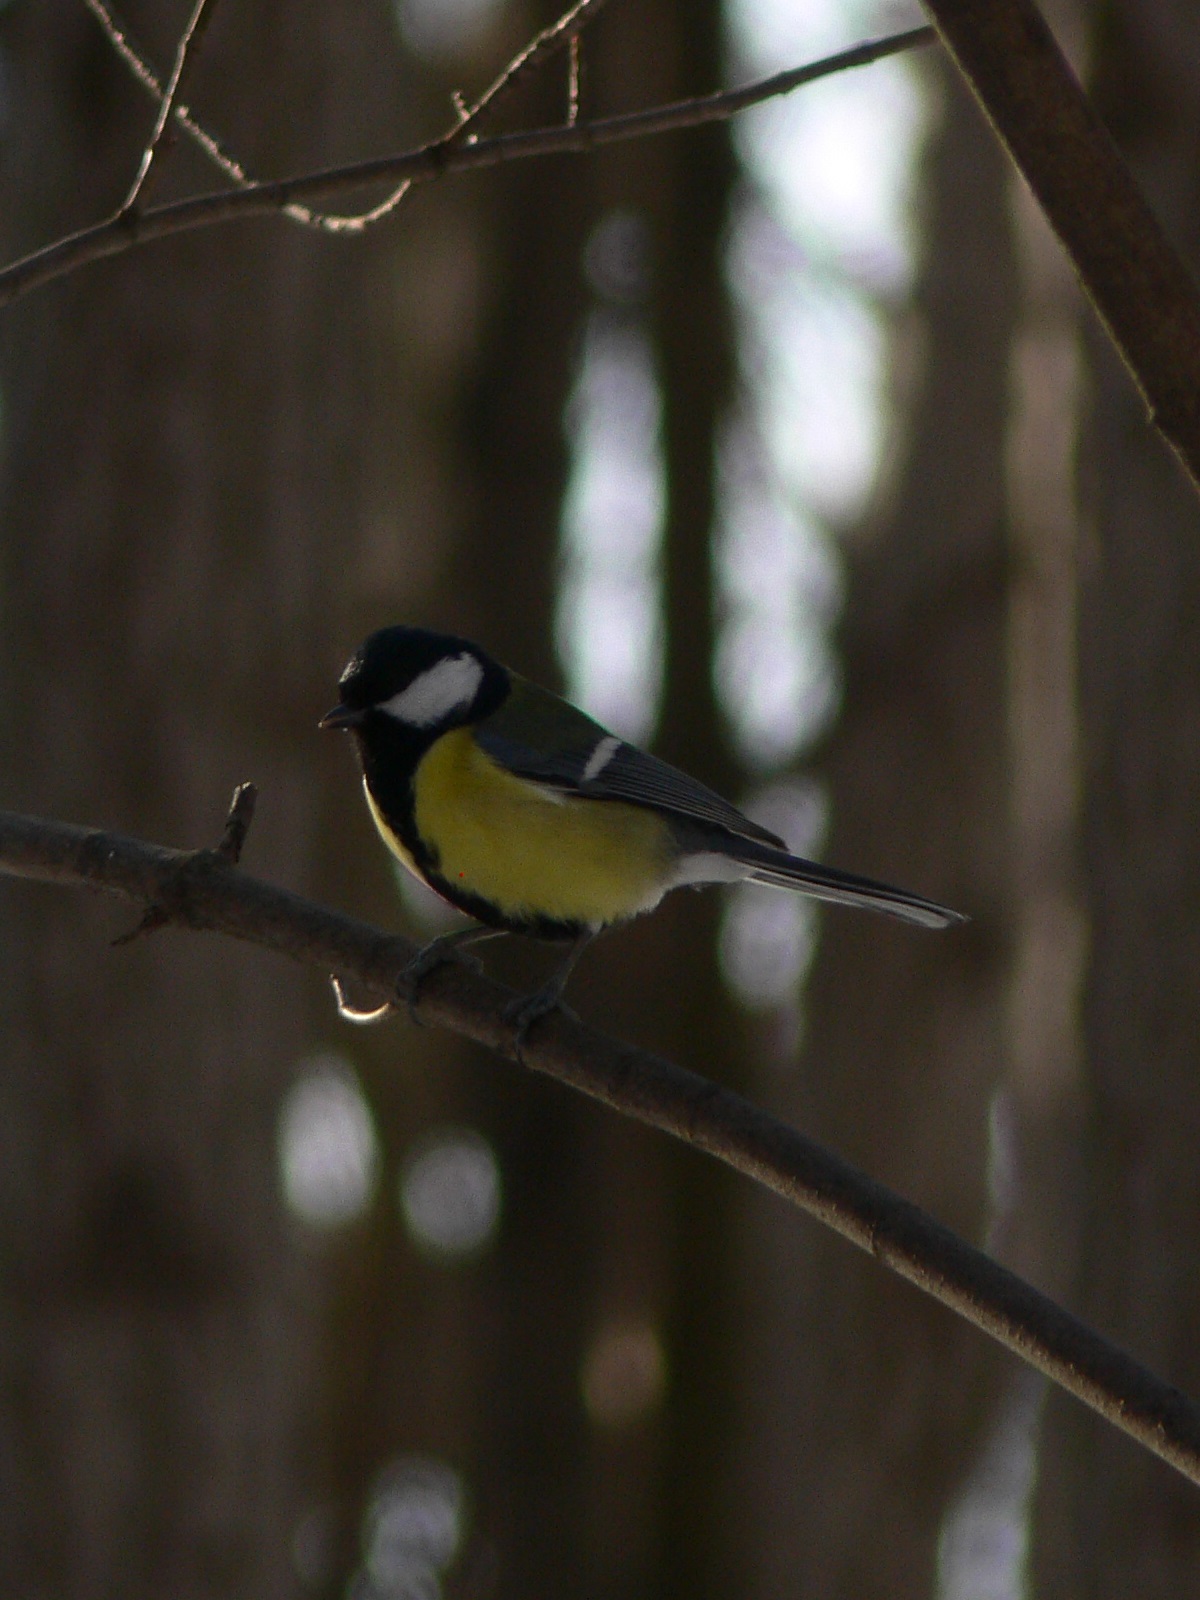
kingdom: Animalia
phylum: Chordata
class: Aves
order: Passeriformes
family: Paridae
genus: Parus
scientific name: Parus major
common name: Great tit
